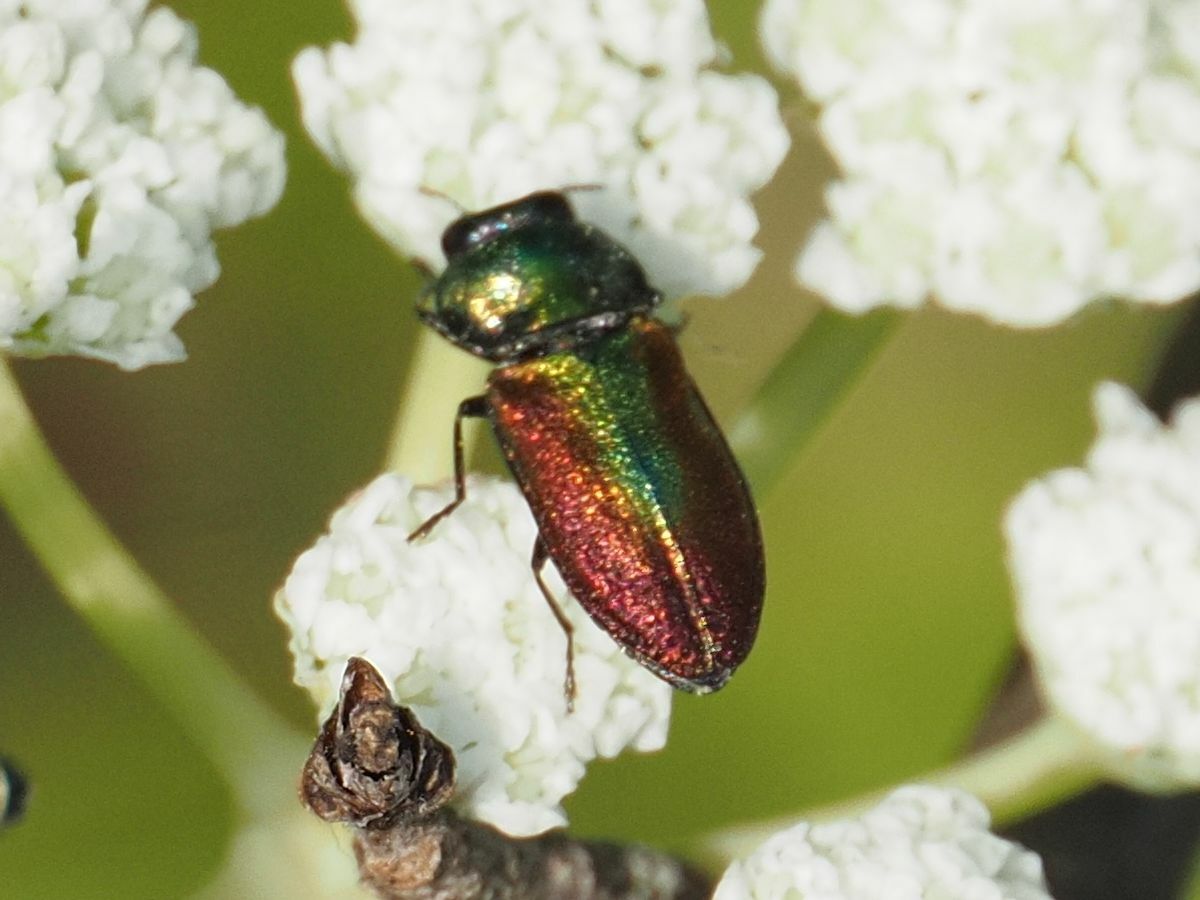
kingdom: Animalia
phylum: Arthropoda
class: Insecta
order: Coleoptera
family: Buprestidae
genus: Anthaxia
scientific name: Anthaxia fulgurans
